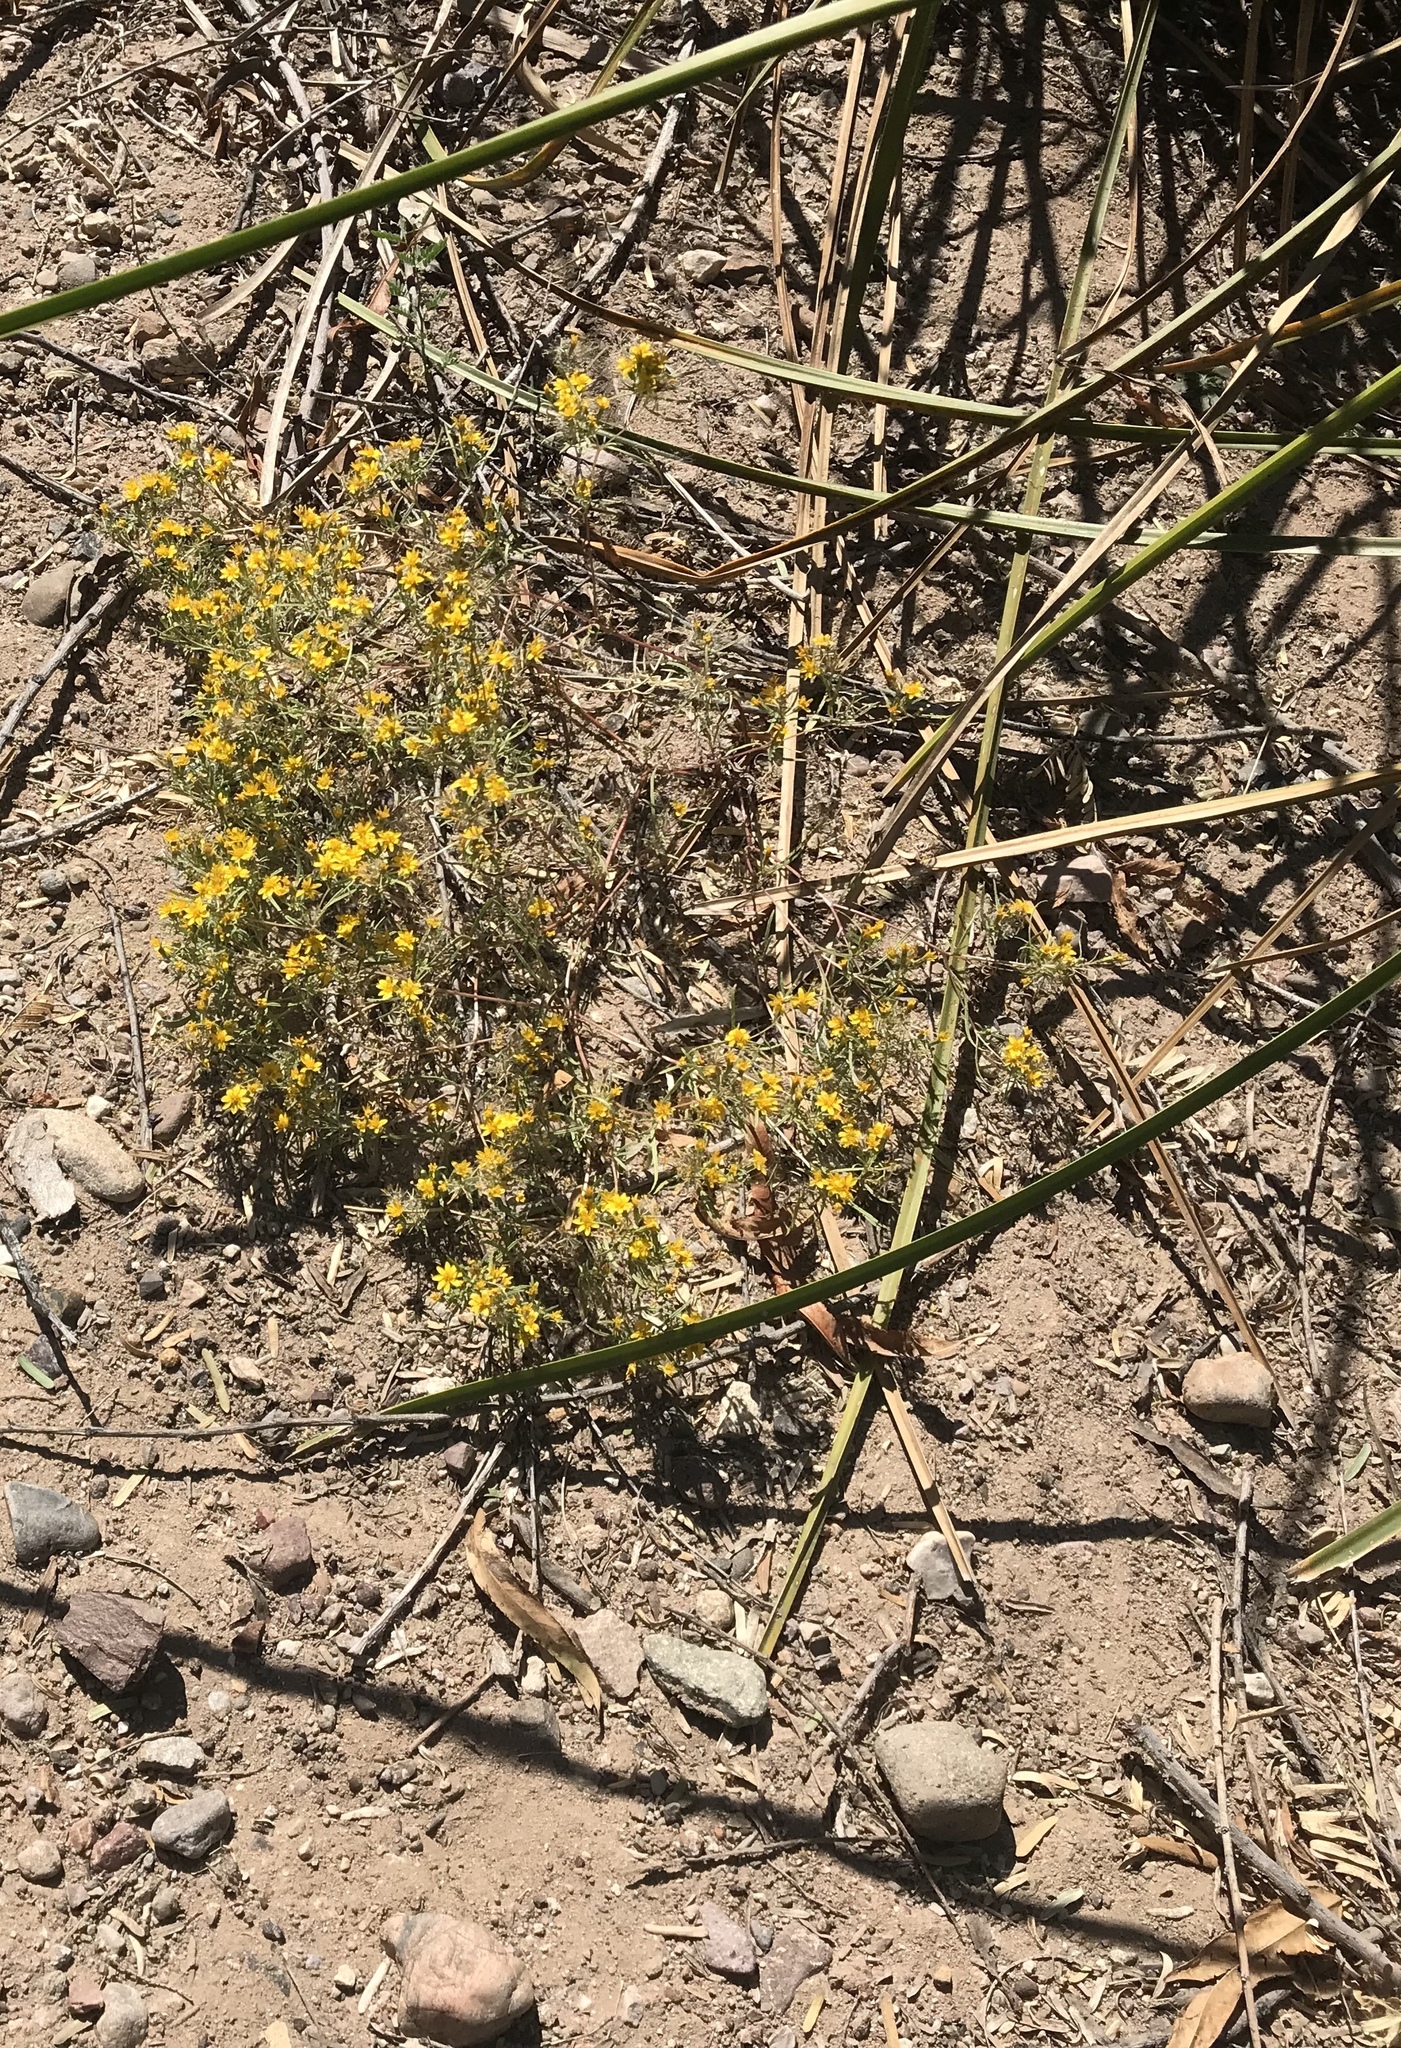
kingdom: Plantae
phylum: Tracheophyta
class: Magnoliopsida
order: Asterales
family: Asteraceae
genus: Pectis
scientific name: Pectis papposa
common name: Many-bristle chinchweed
